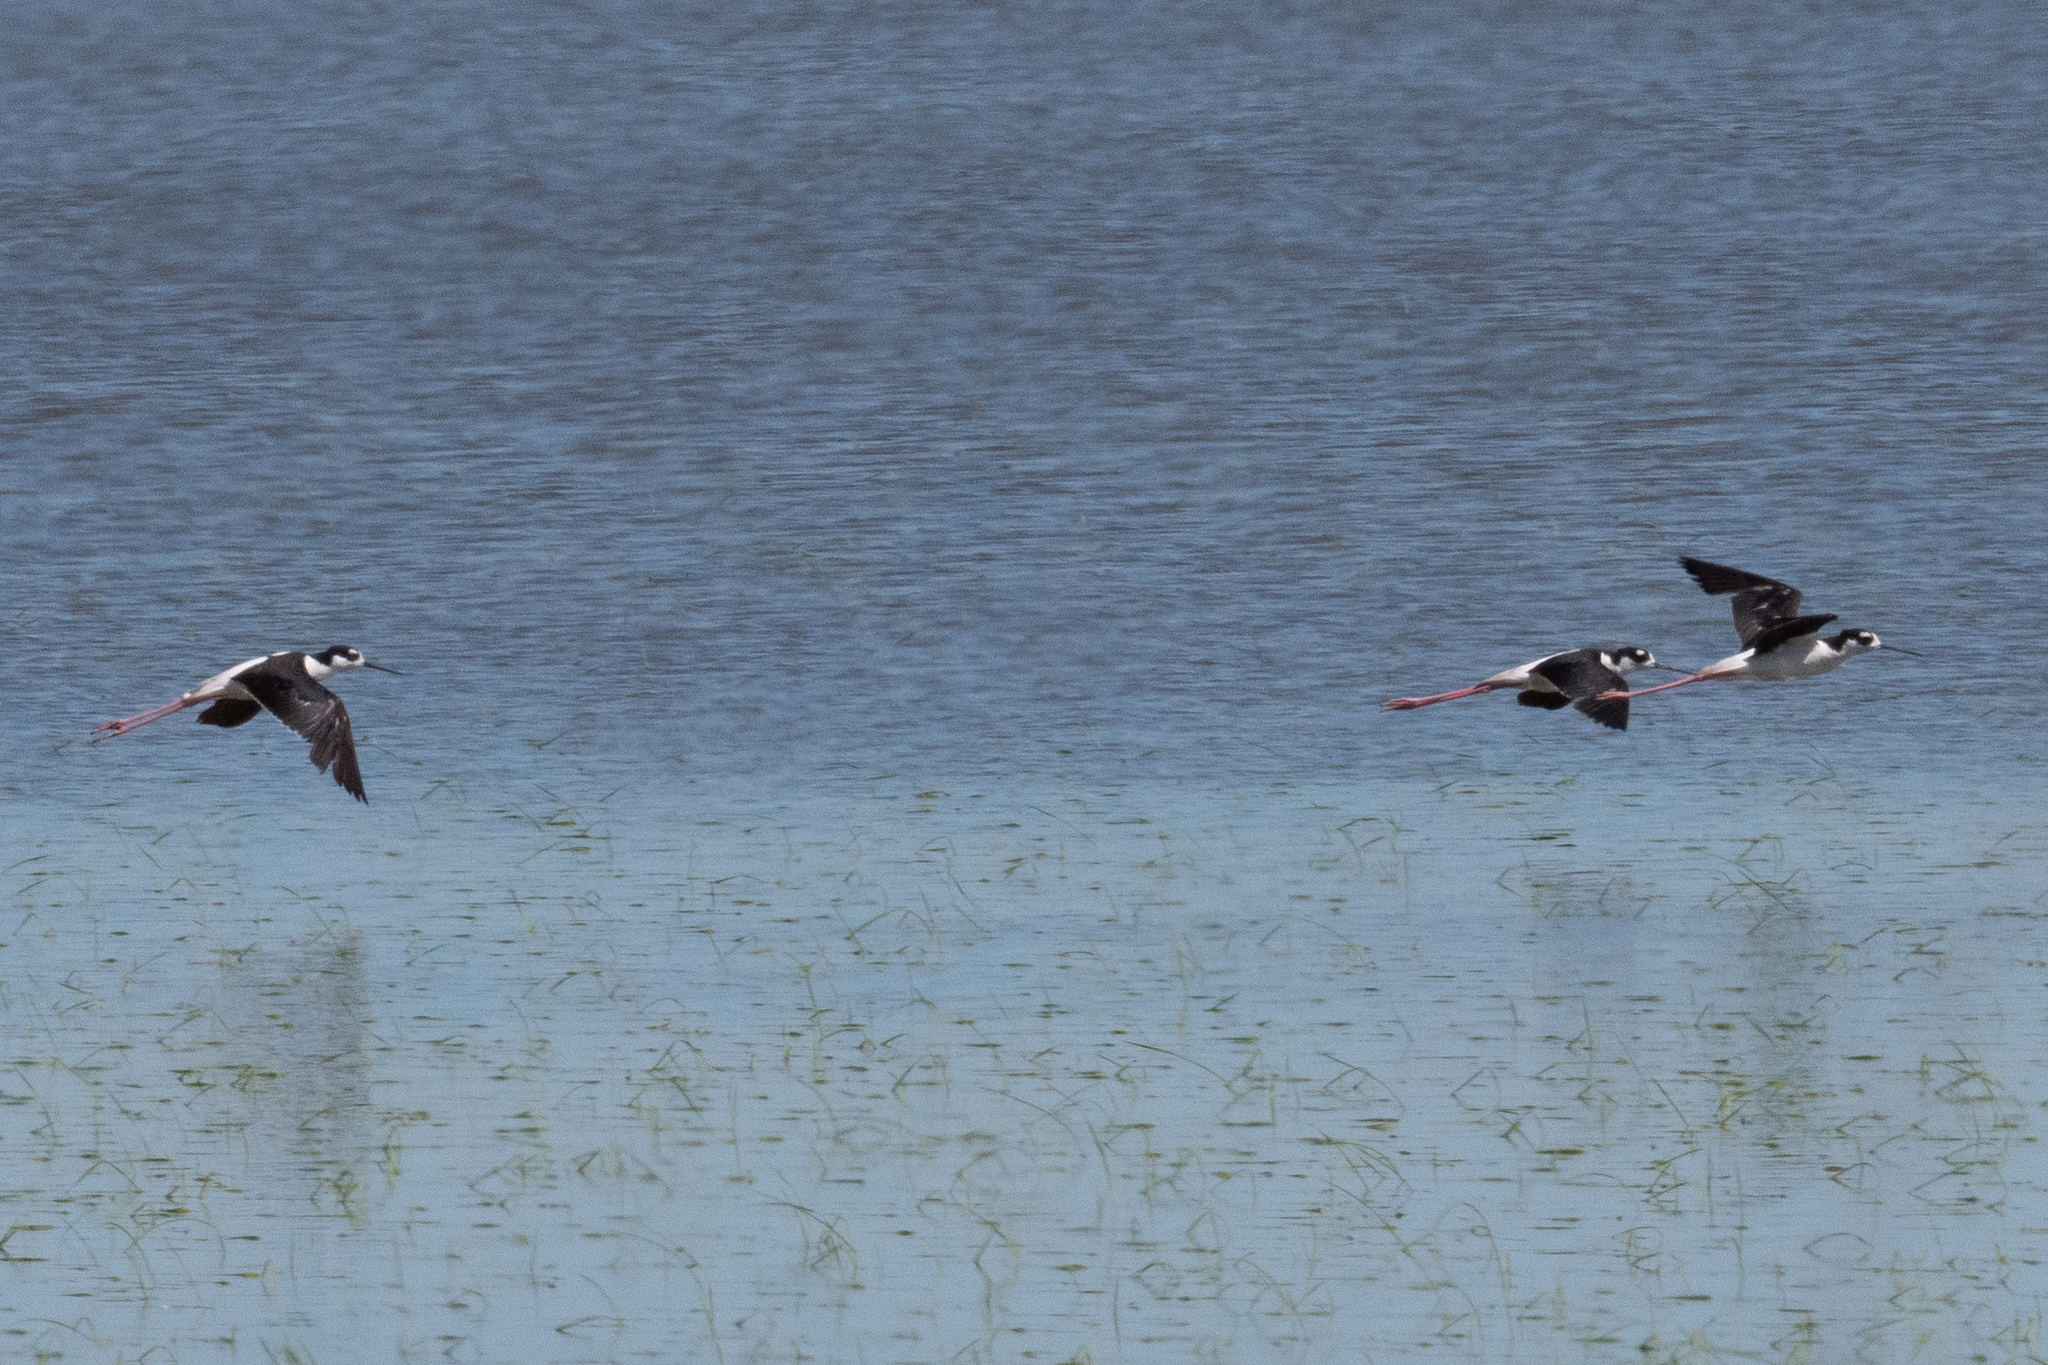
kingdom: Animalia
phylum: Chordata
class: Aves
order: Charadriiformes
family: Recurvirostridae
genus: Himantopus
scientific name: Himantopus mexicanus
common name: Black-necked stilt
